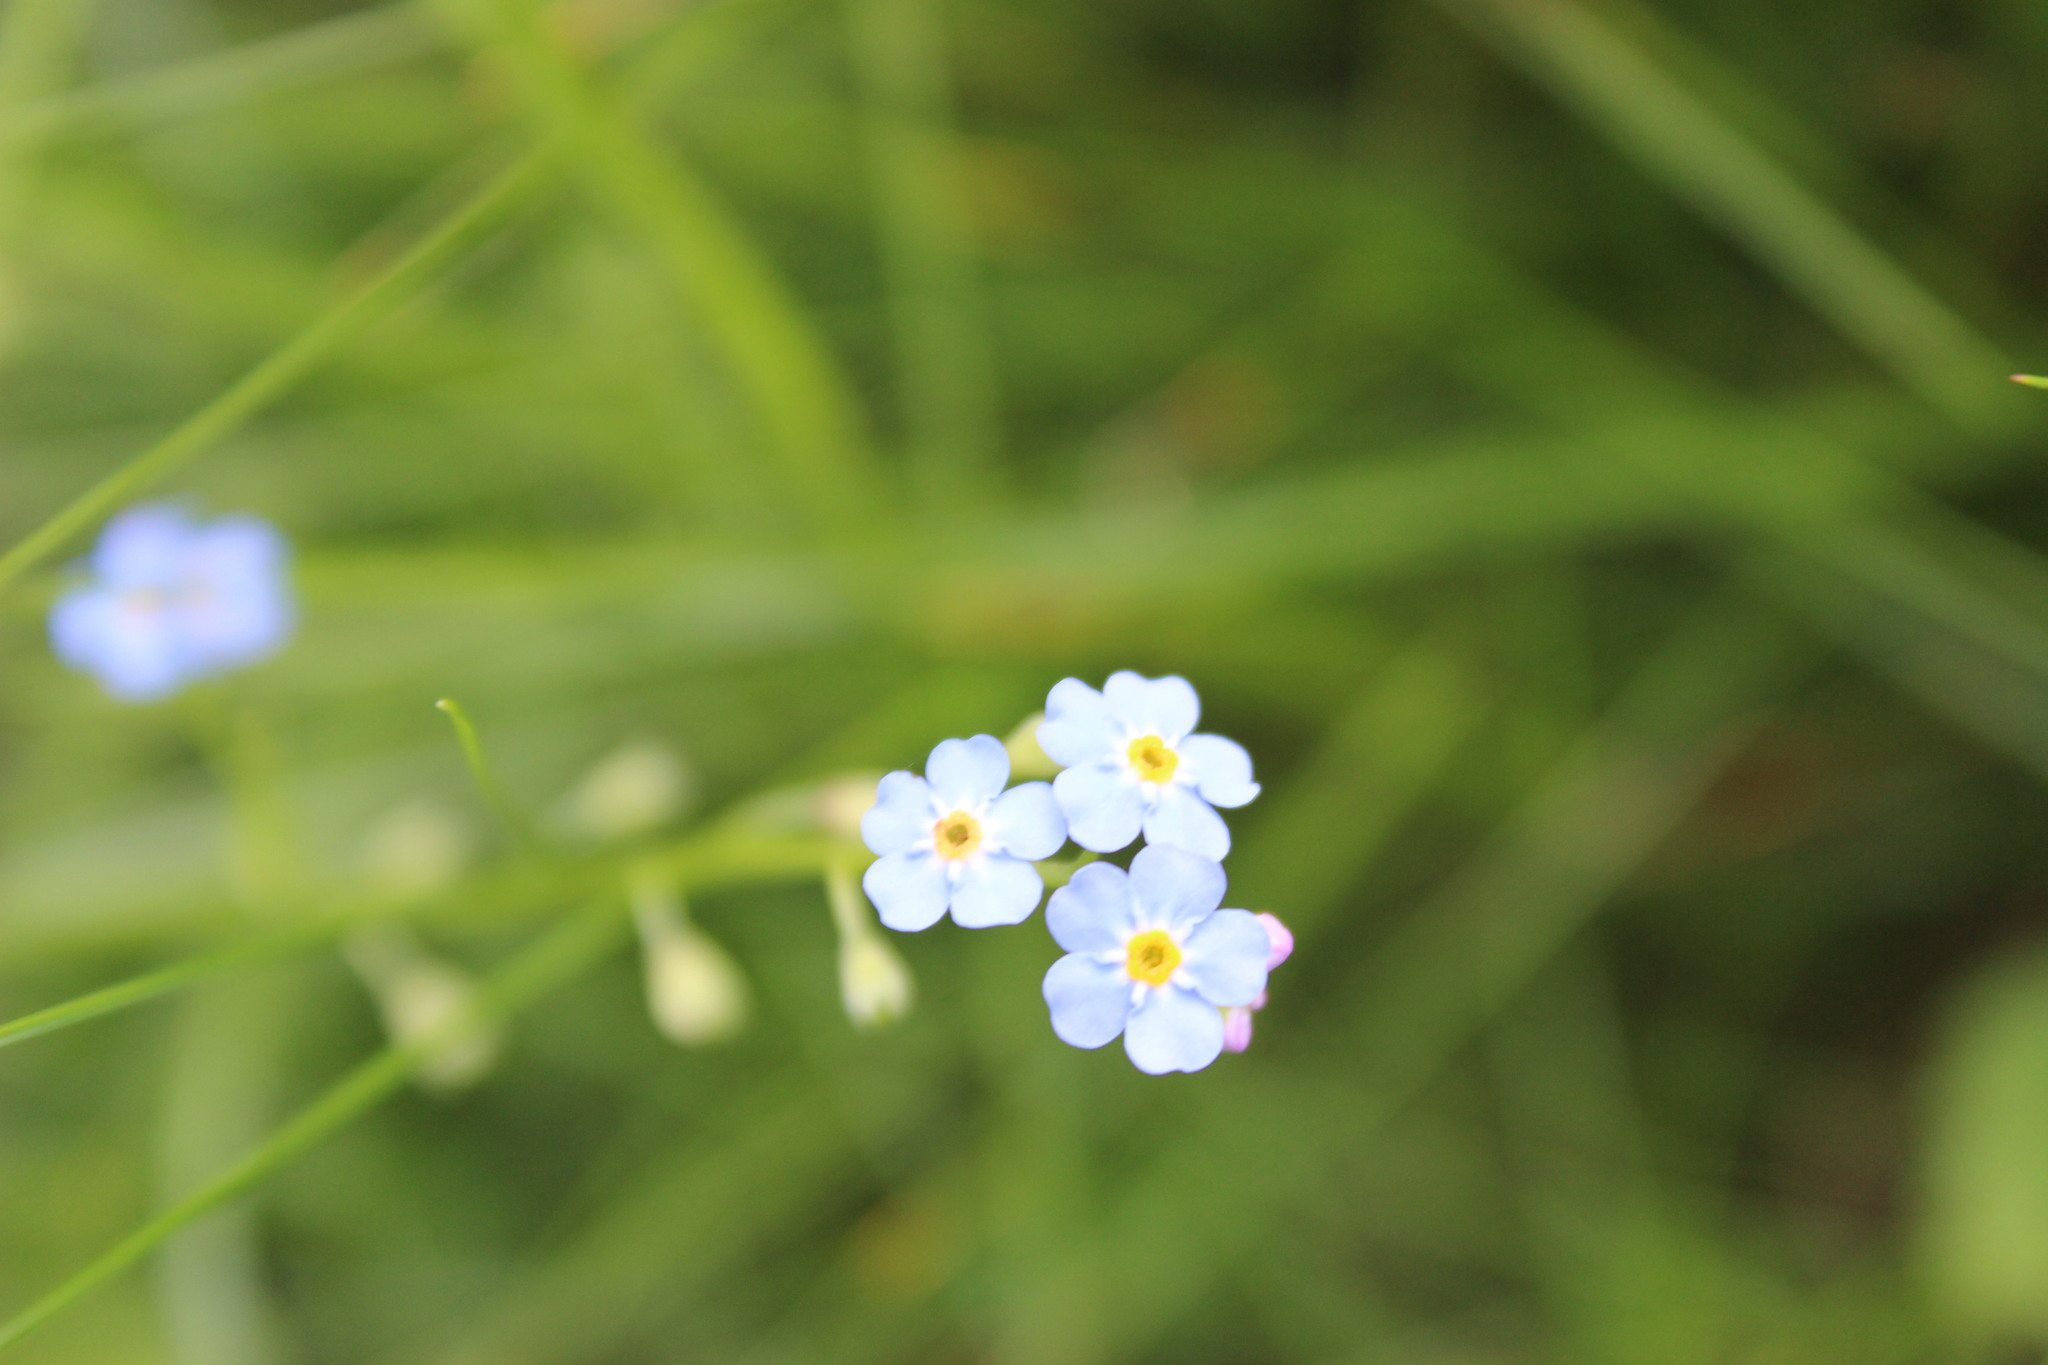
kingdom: Plantae
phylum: Tracheophyta
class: Magnoliopsida
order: Boraginales
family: Boraginaceae
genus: Myosotis
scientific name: Myosotis scorpioides
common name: Water forget-me-not
